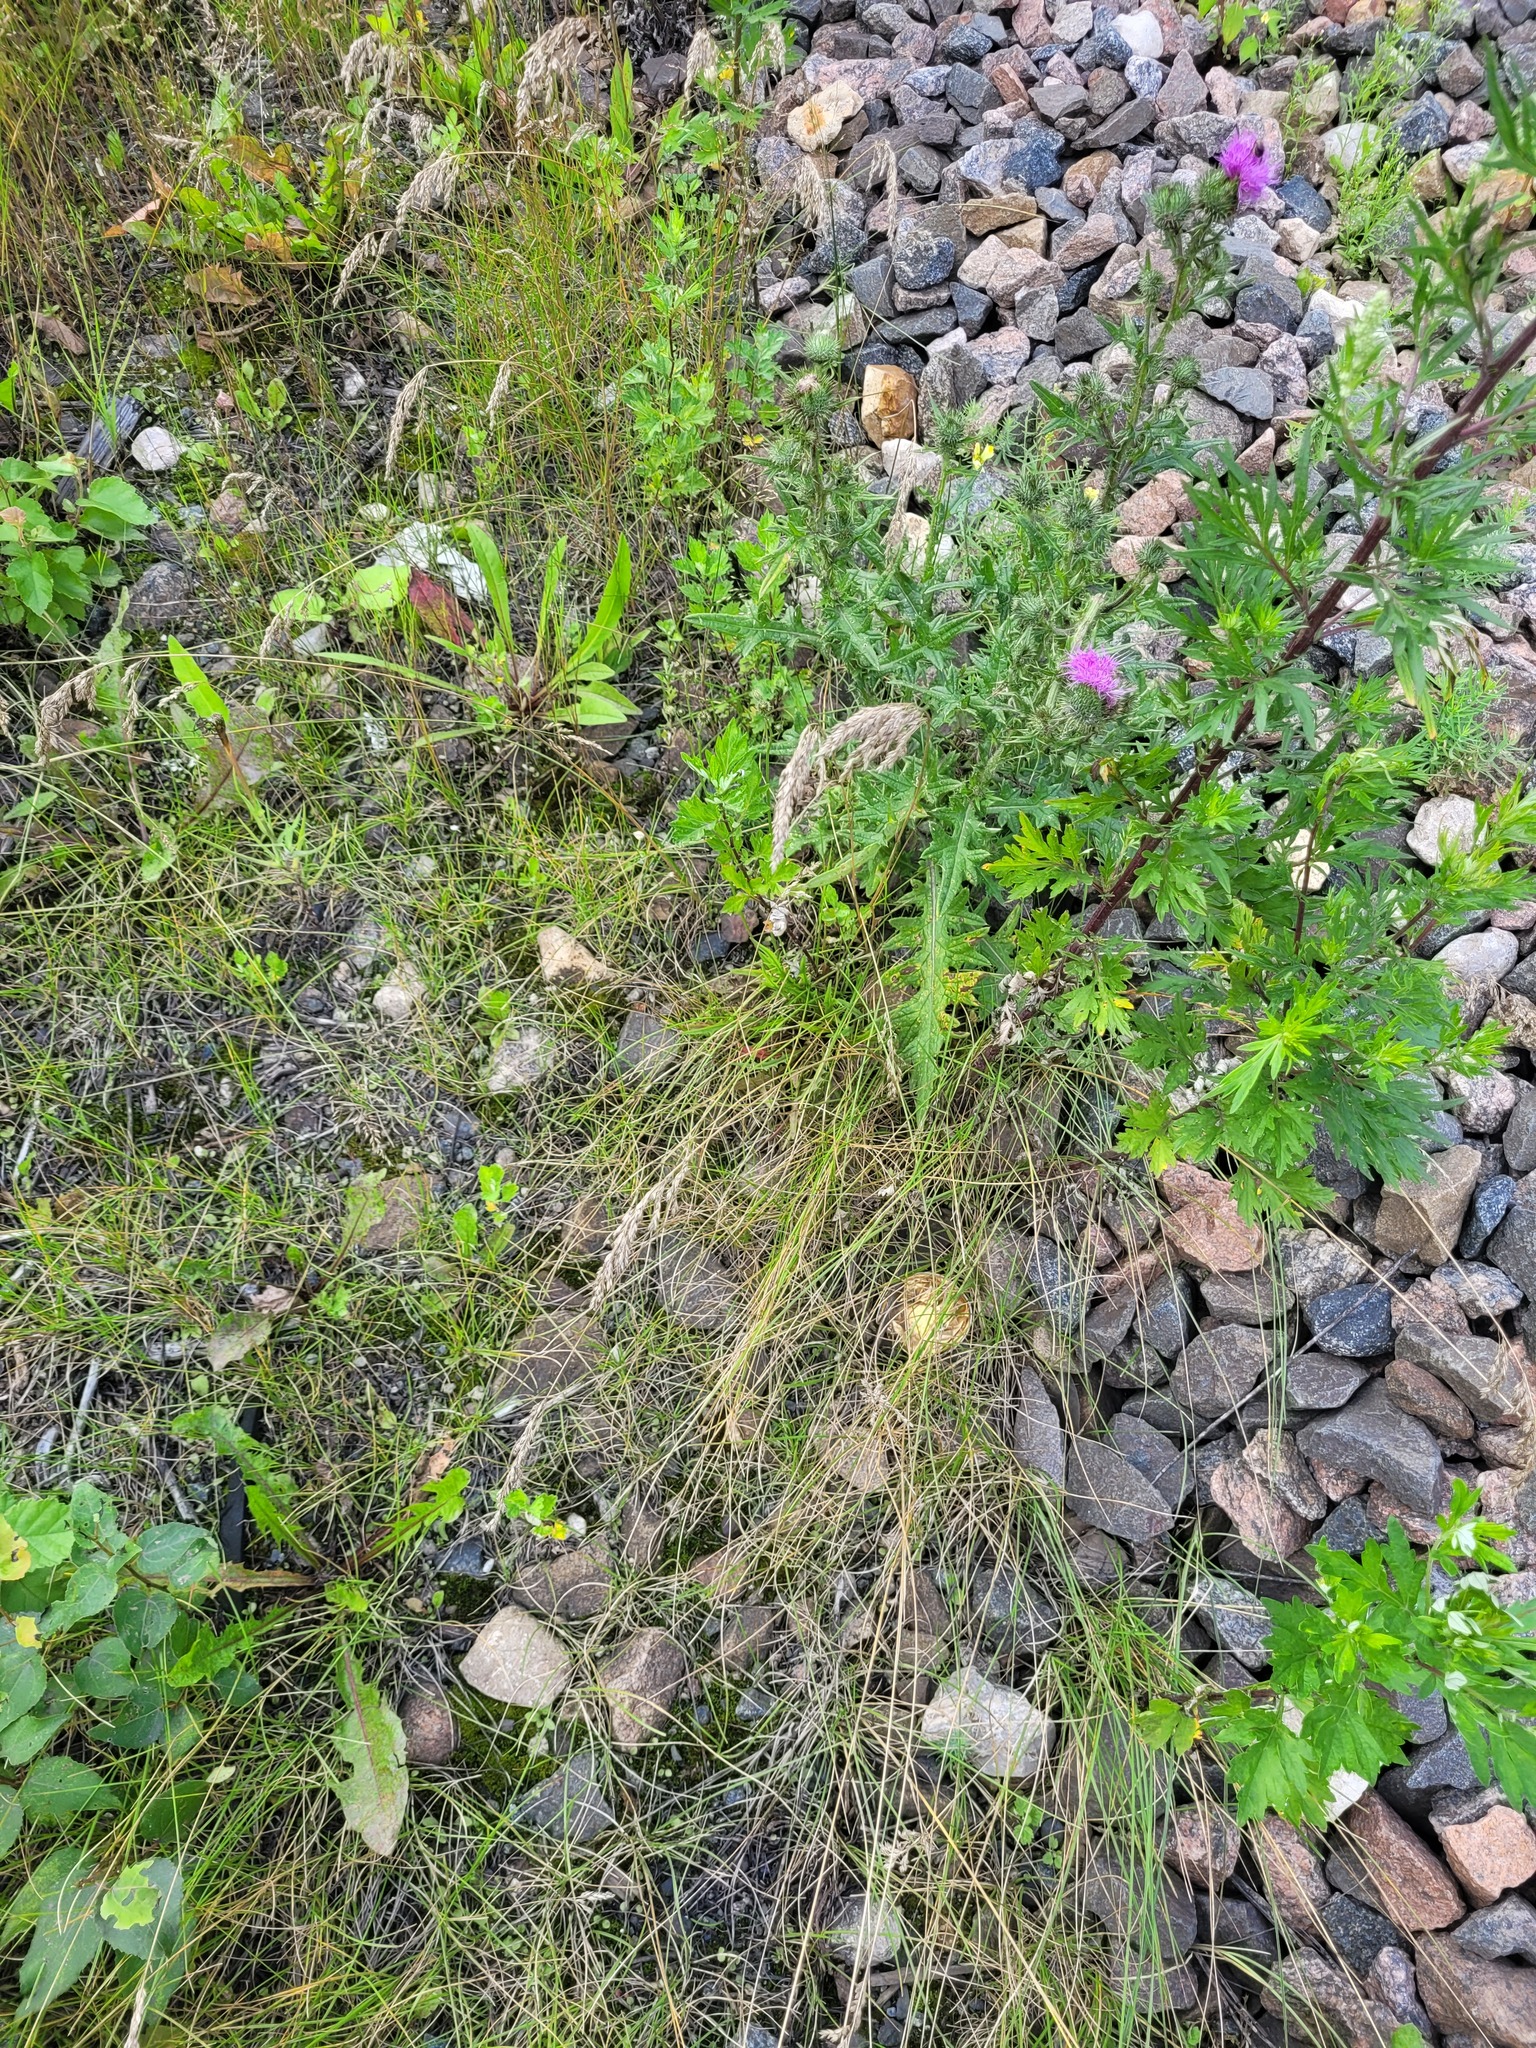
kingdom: Plantae
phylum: Tracheophyta
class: Liliopsida
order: Poales
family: Poaceae
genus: Poa
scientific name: Poa angustifolia
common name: Narrow-leaved meadow-grass
